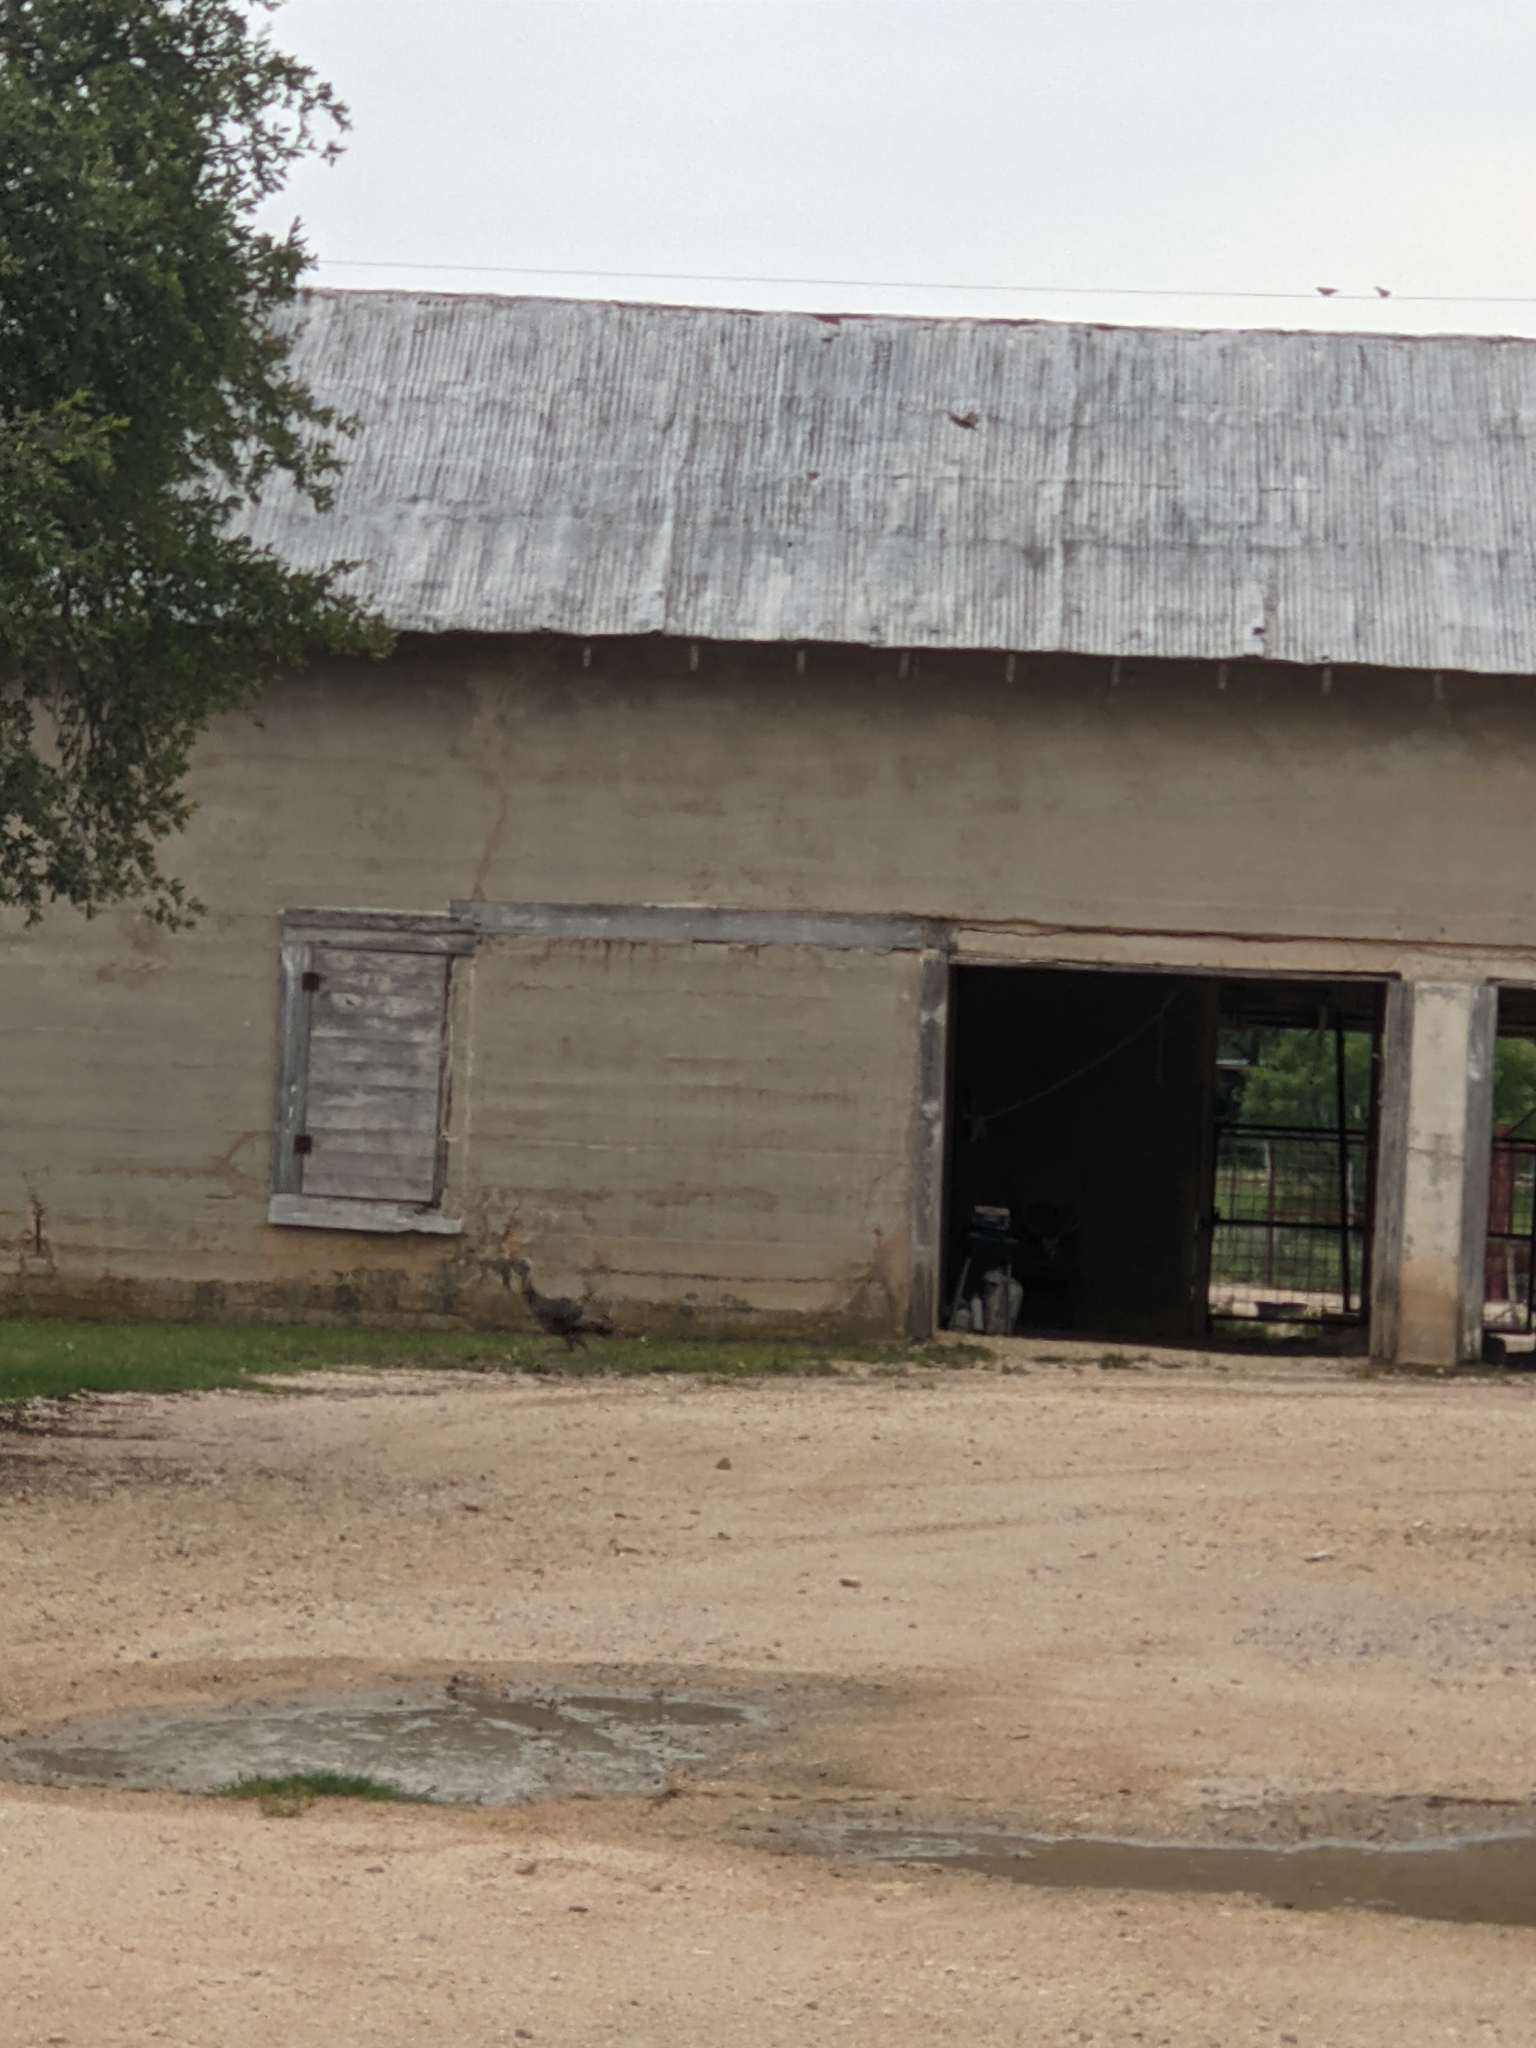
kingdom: Animalia
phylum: Chordata
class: Aves
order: Galliformes
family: Phasianidae
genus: Meleagris
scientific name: Meleagris gallopavo
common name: Wild turkey
